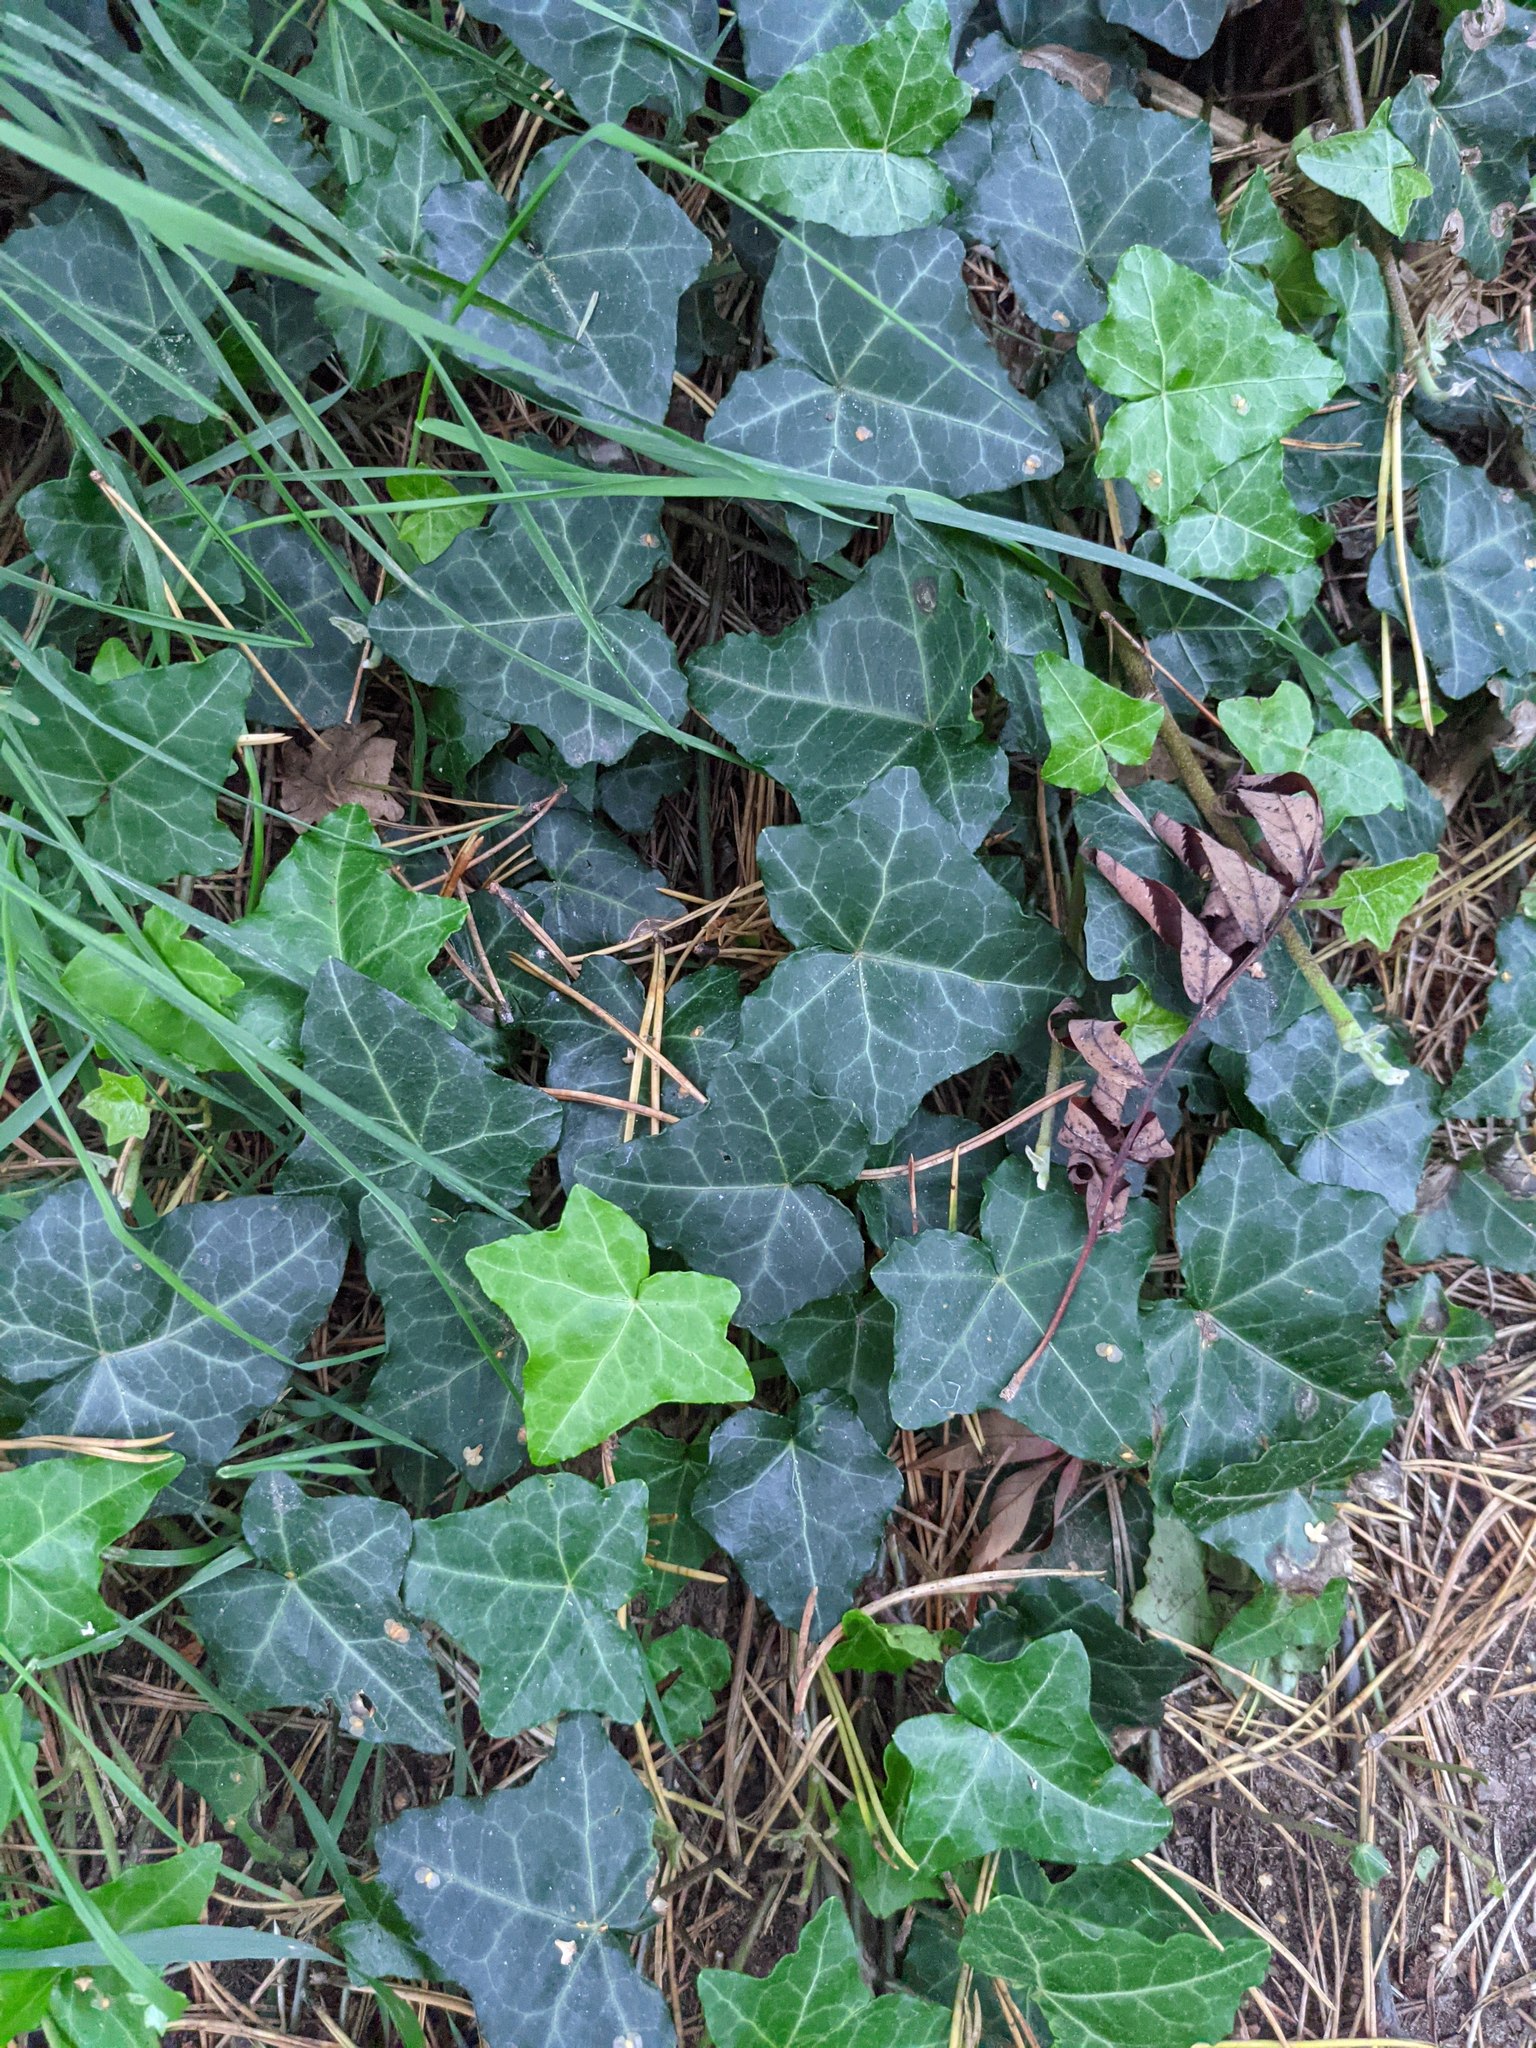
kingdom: Plantae
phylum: Tracheophyta
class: Magnoliopsida
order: Apiales
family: Araliaceae
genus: Hedera
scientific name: Hedera helix
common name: Ivy
